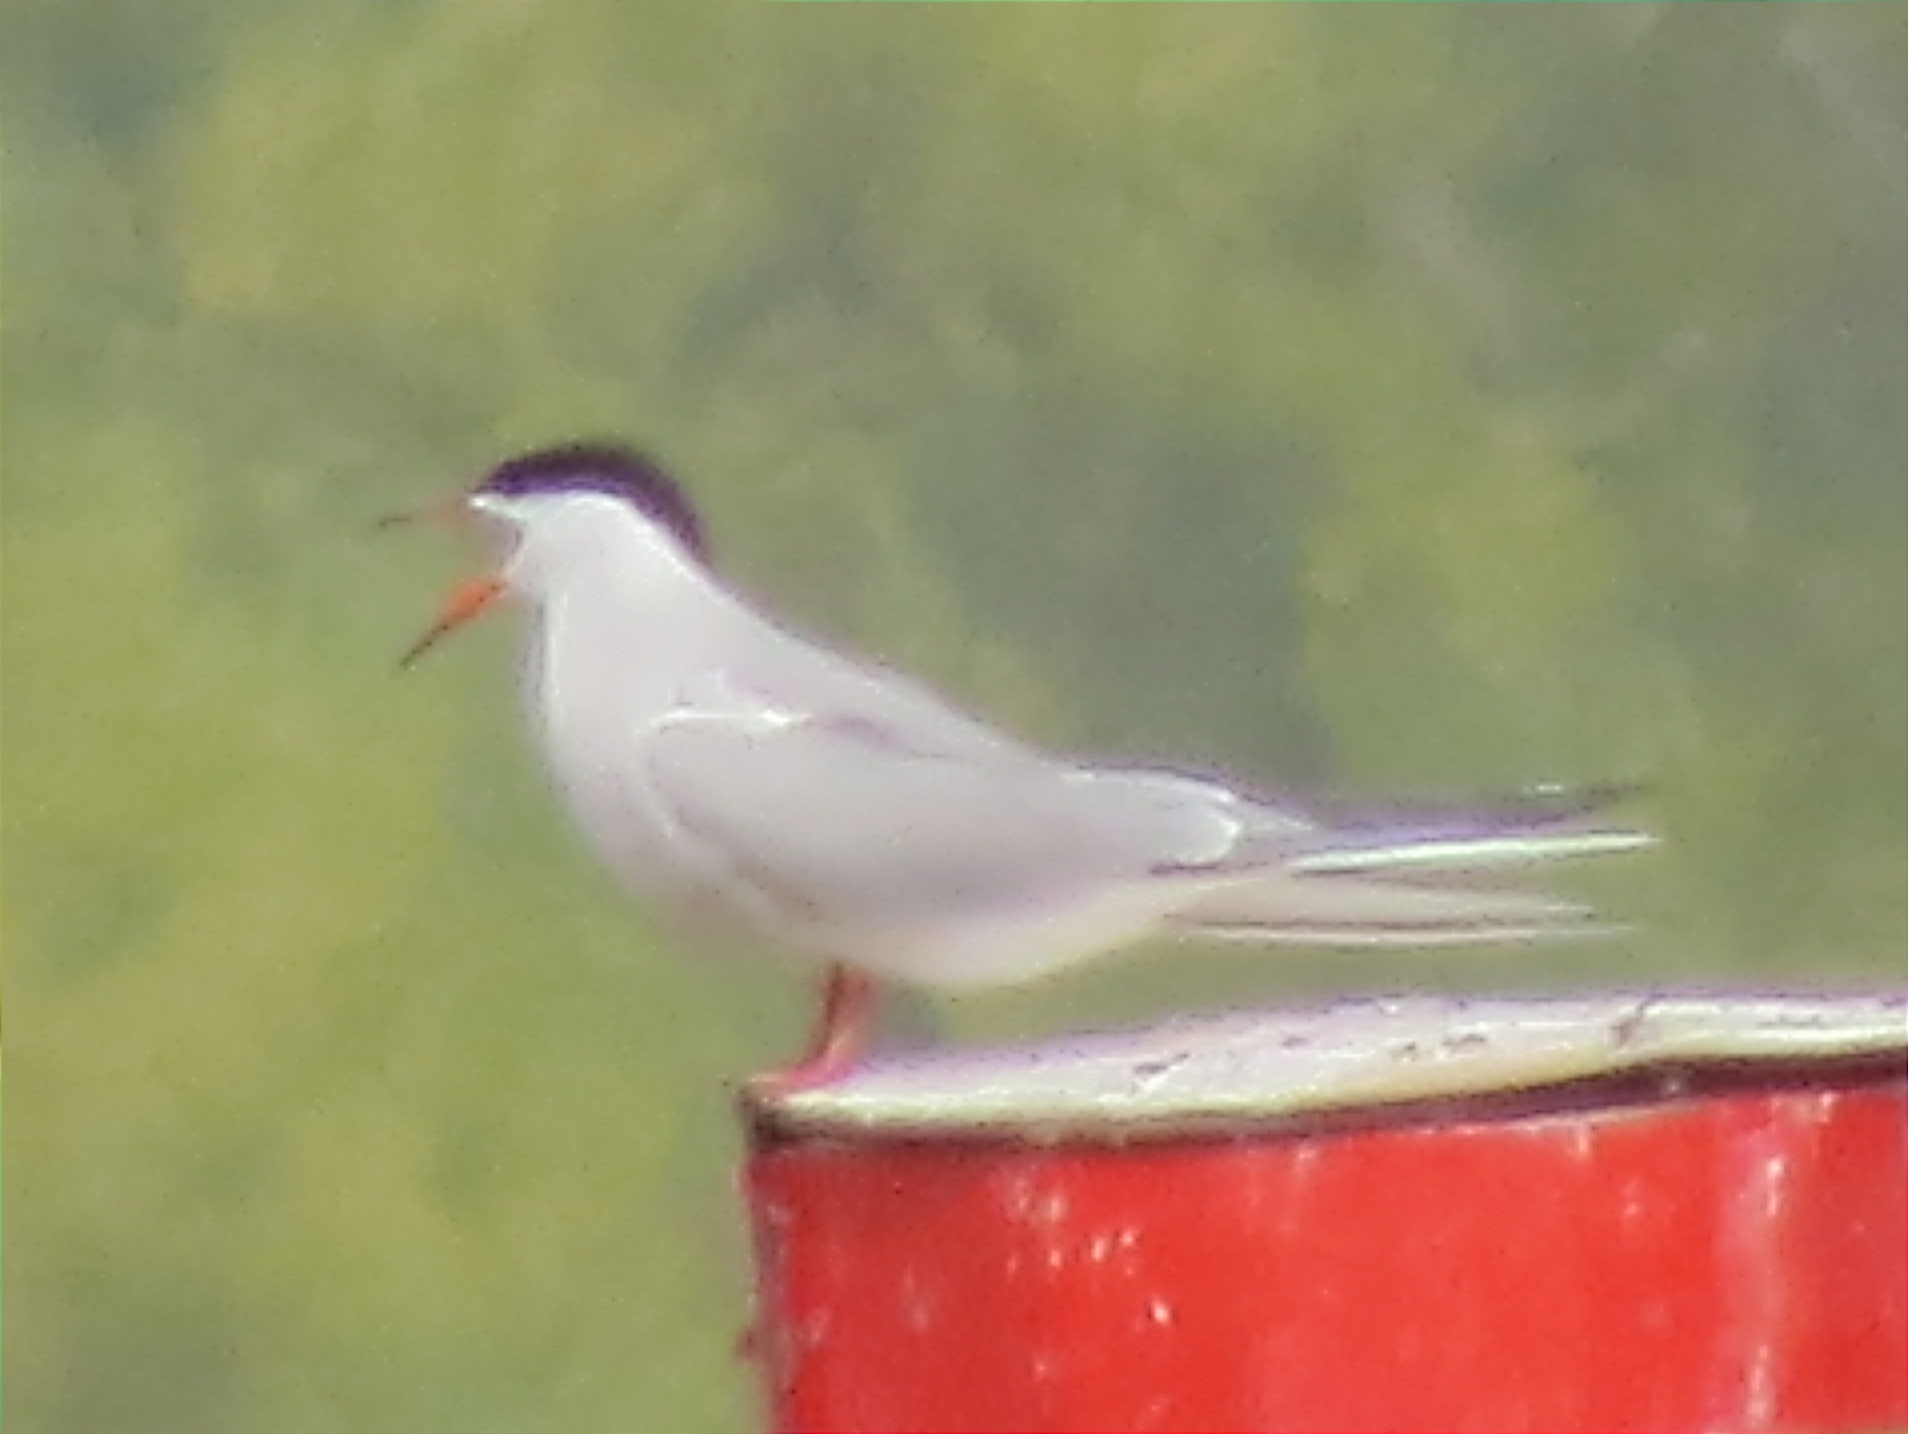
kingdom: Animalia
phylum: Chordata
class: Aves
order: Charadriiformes
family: Laridae
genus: Sterna
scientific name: Sterna hirundo
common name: Common tern
